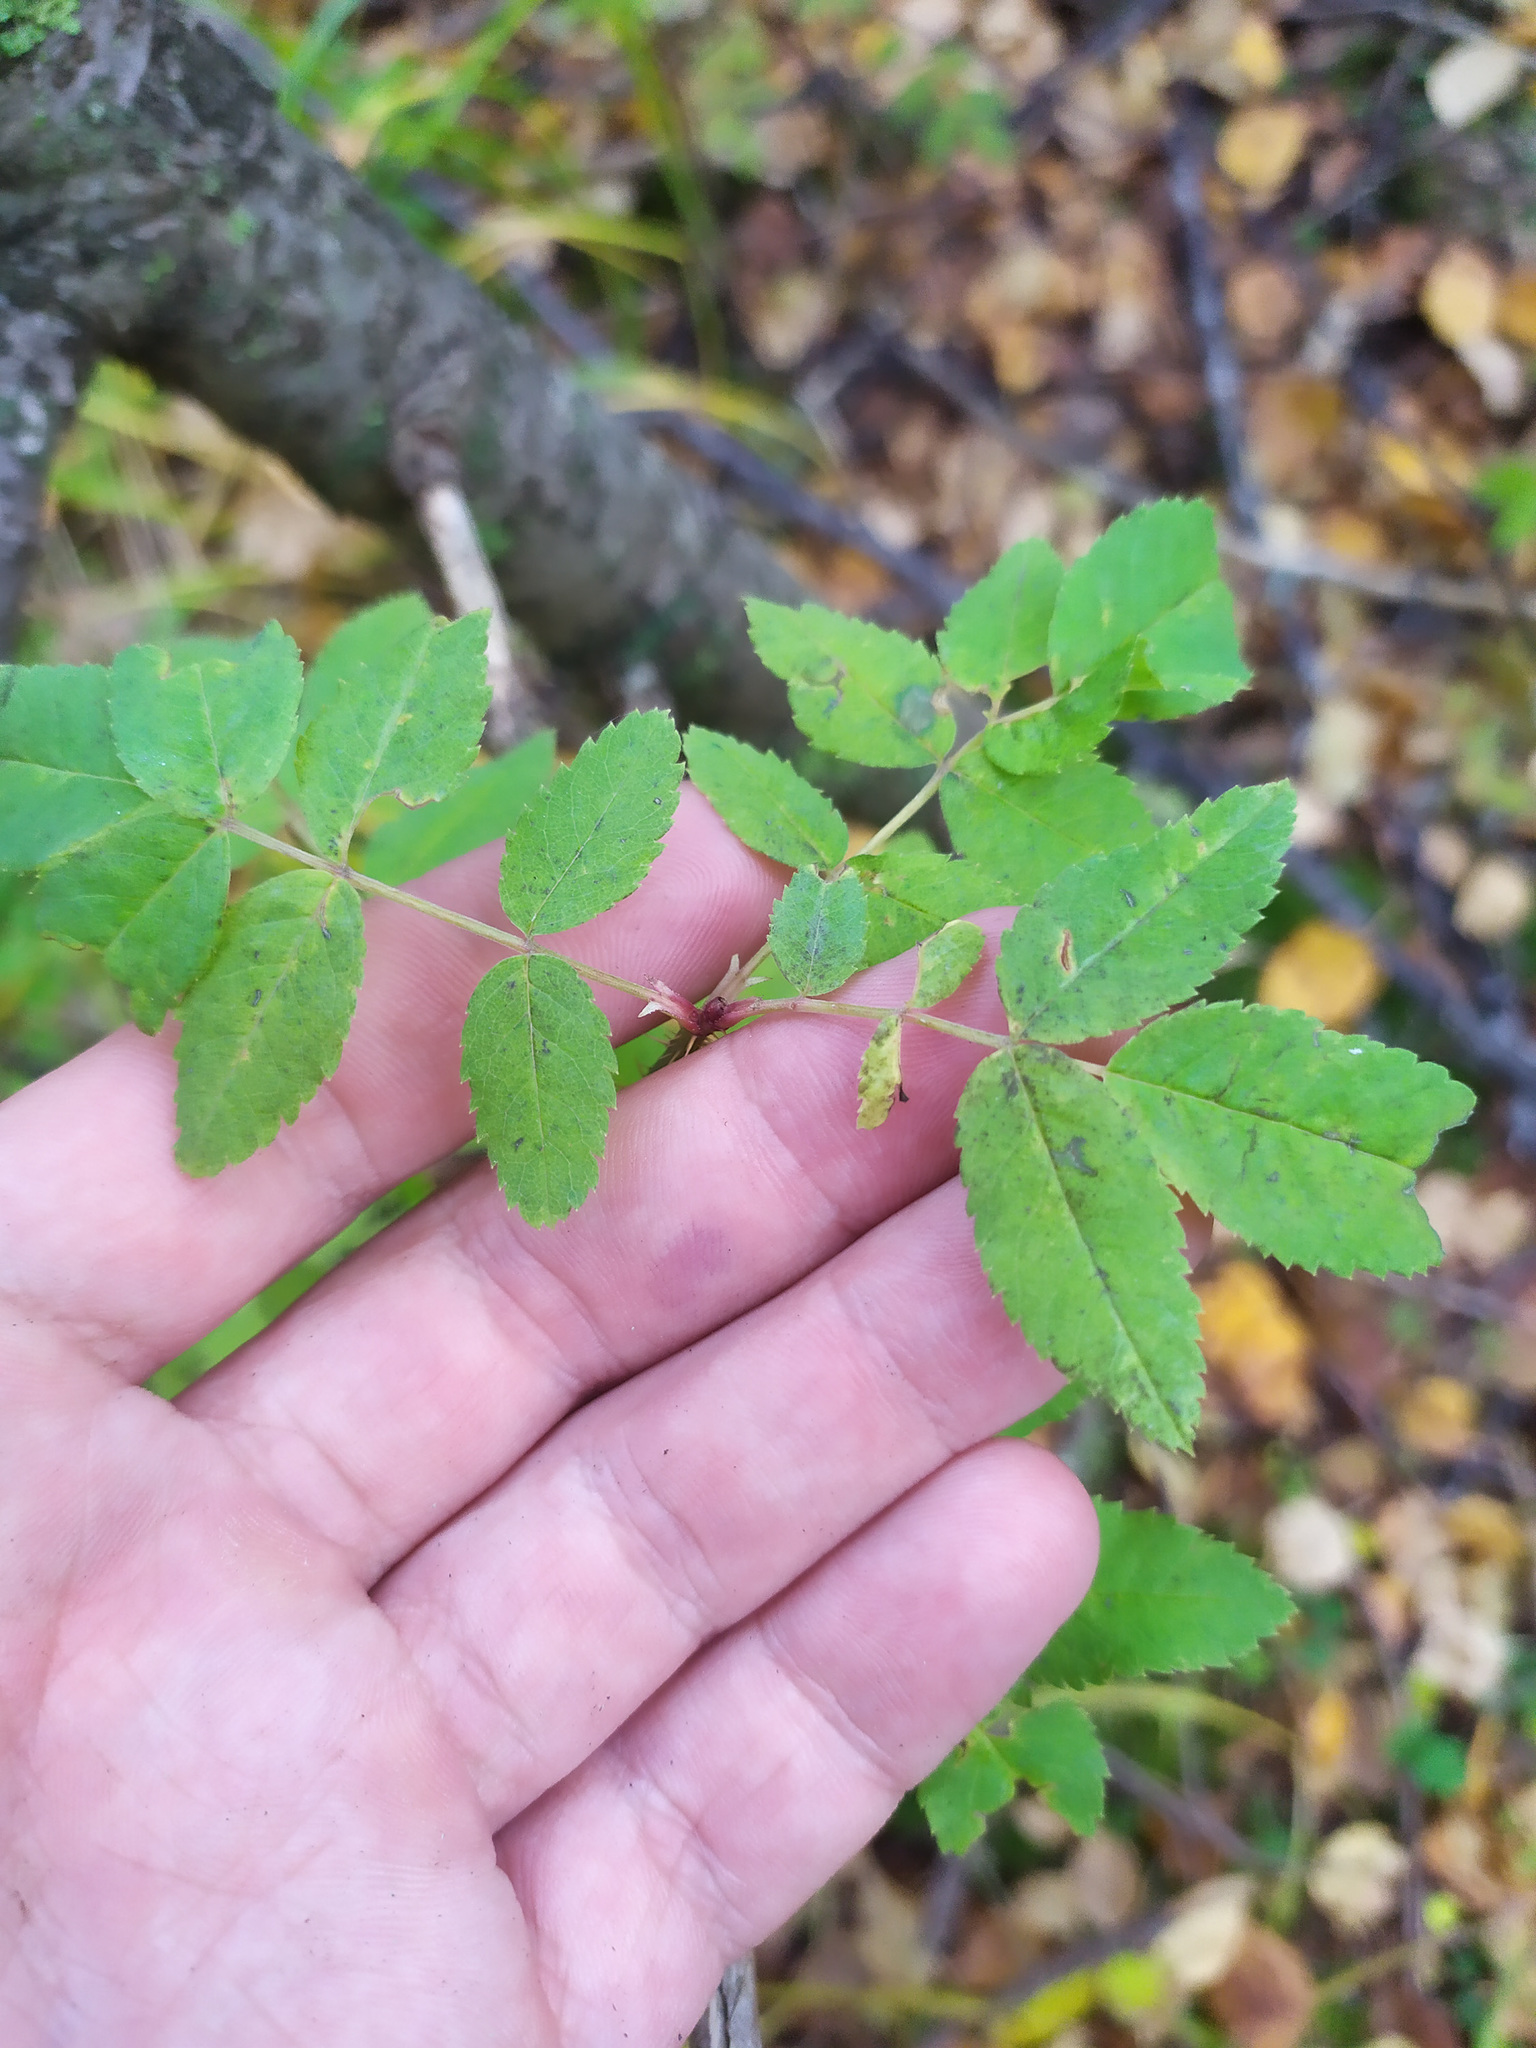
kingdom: Plantae
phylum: Tracheophyta
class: Magnoliopsida
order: Rosales
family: Rosaceae
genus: Rosa
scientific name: Rosa
